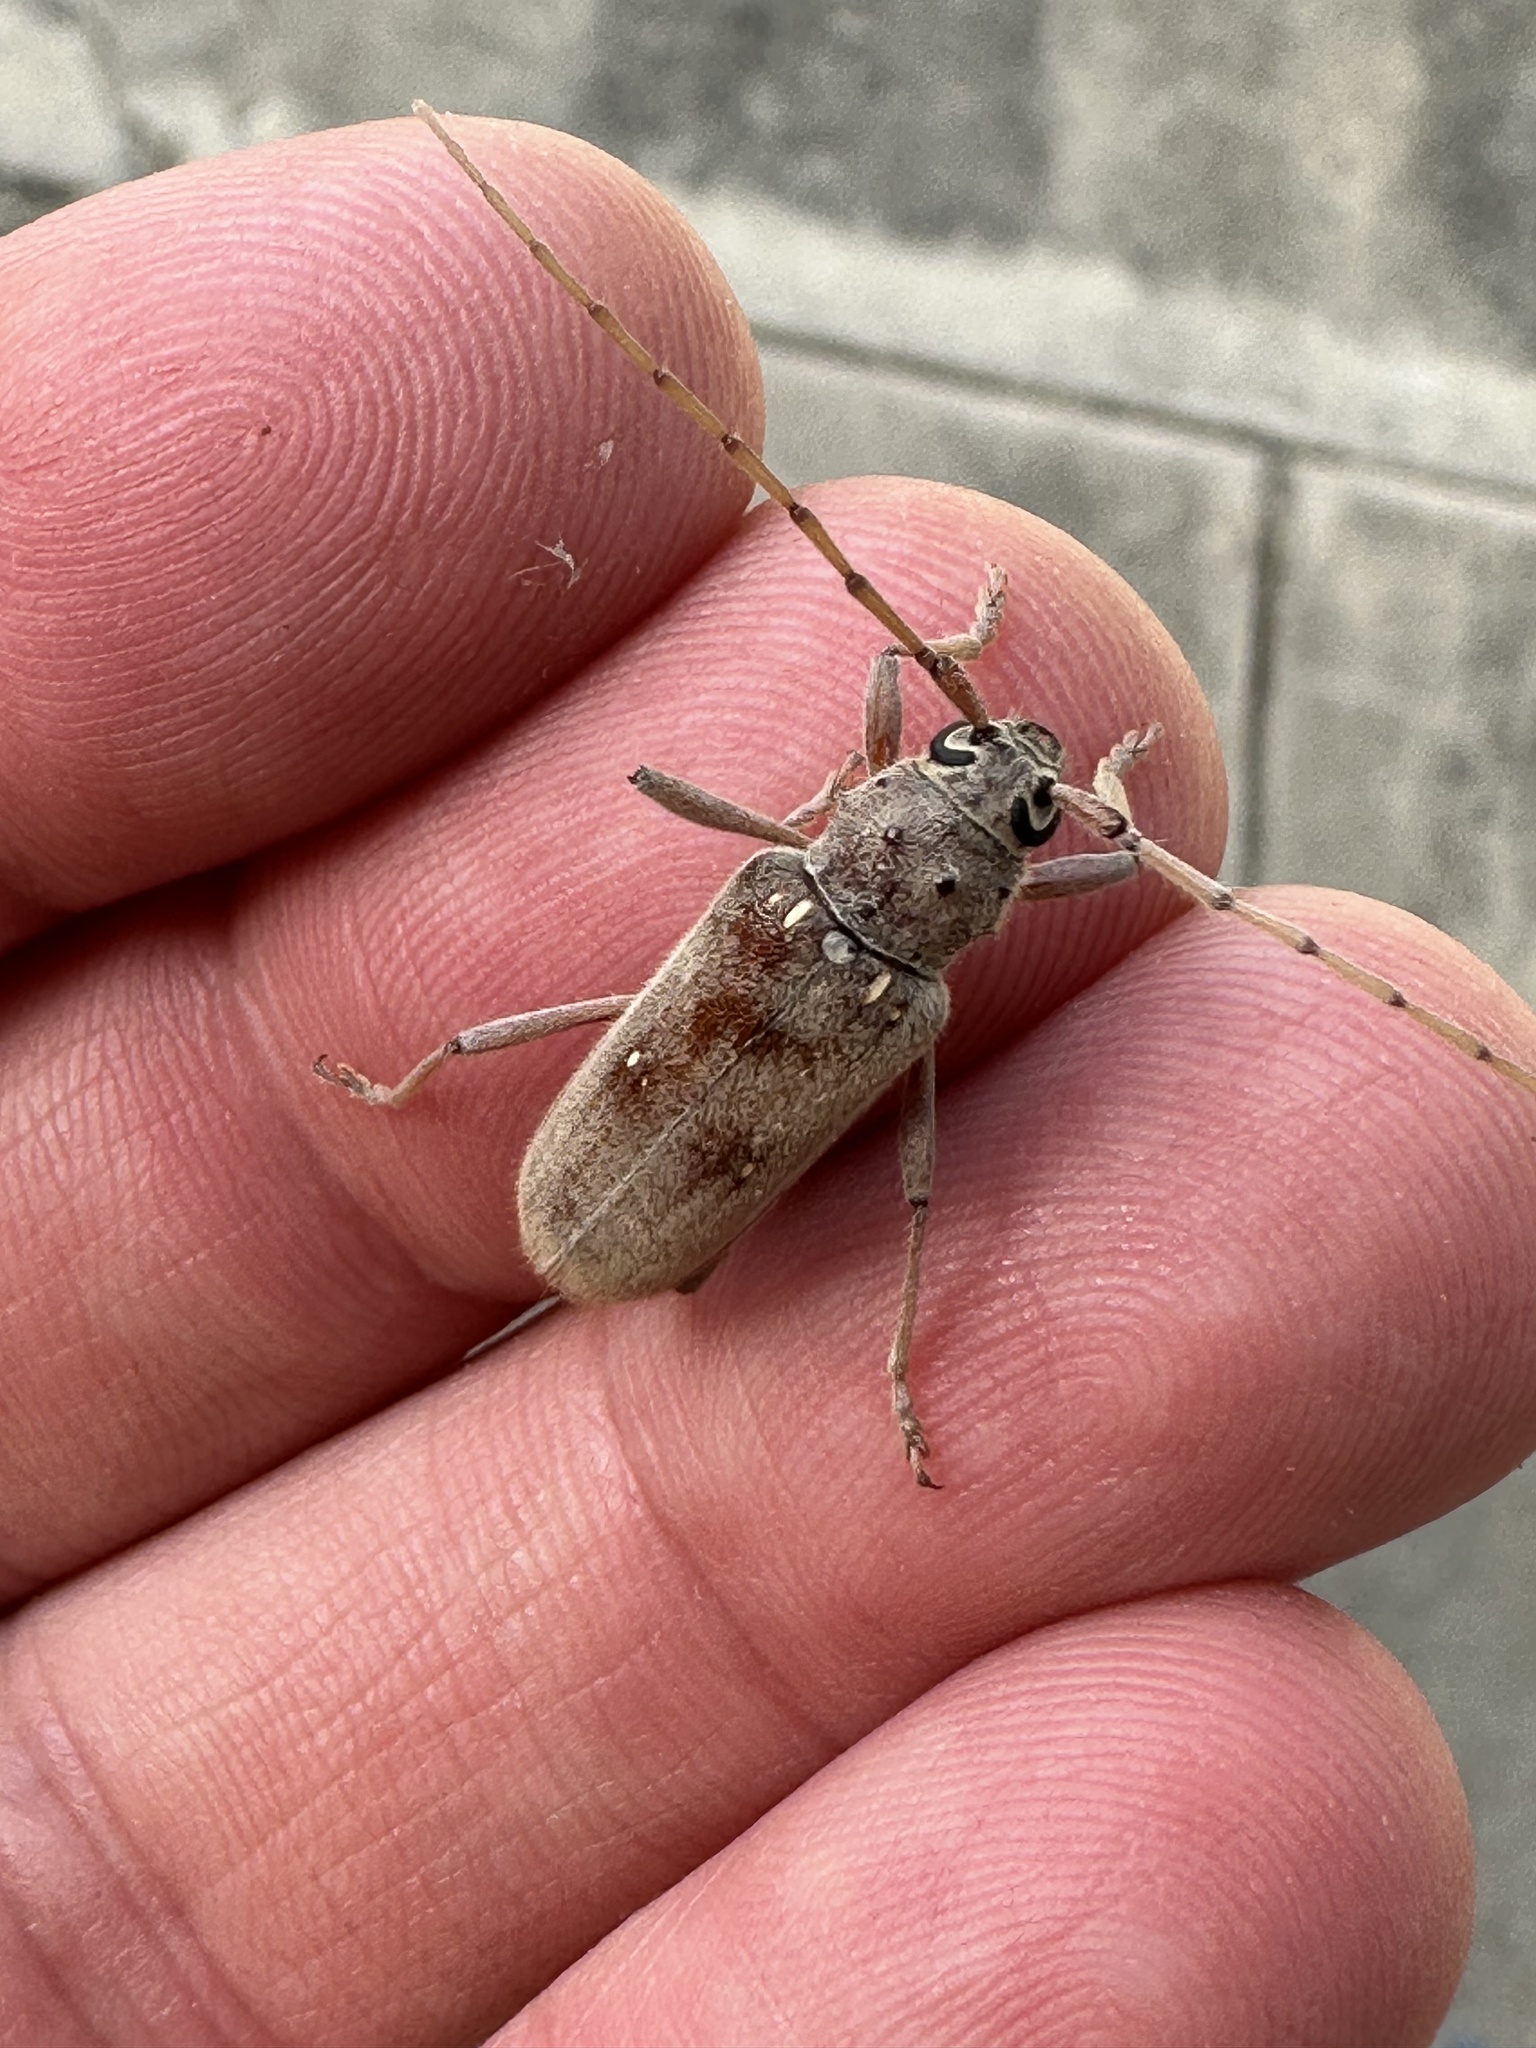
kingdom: Animalia
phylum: Arthropoda
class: Insecta
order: Coleoptera
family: Cerambycidae
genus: Eburia
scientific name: Eburia mutica
